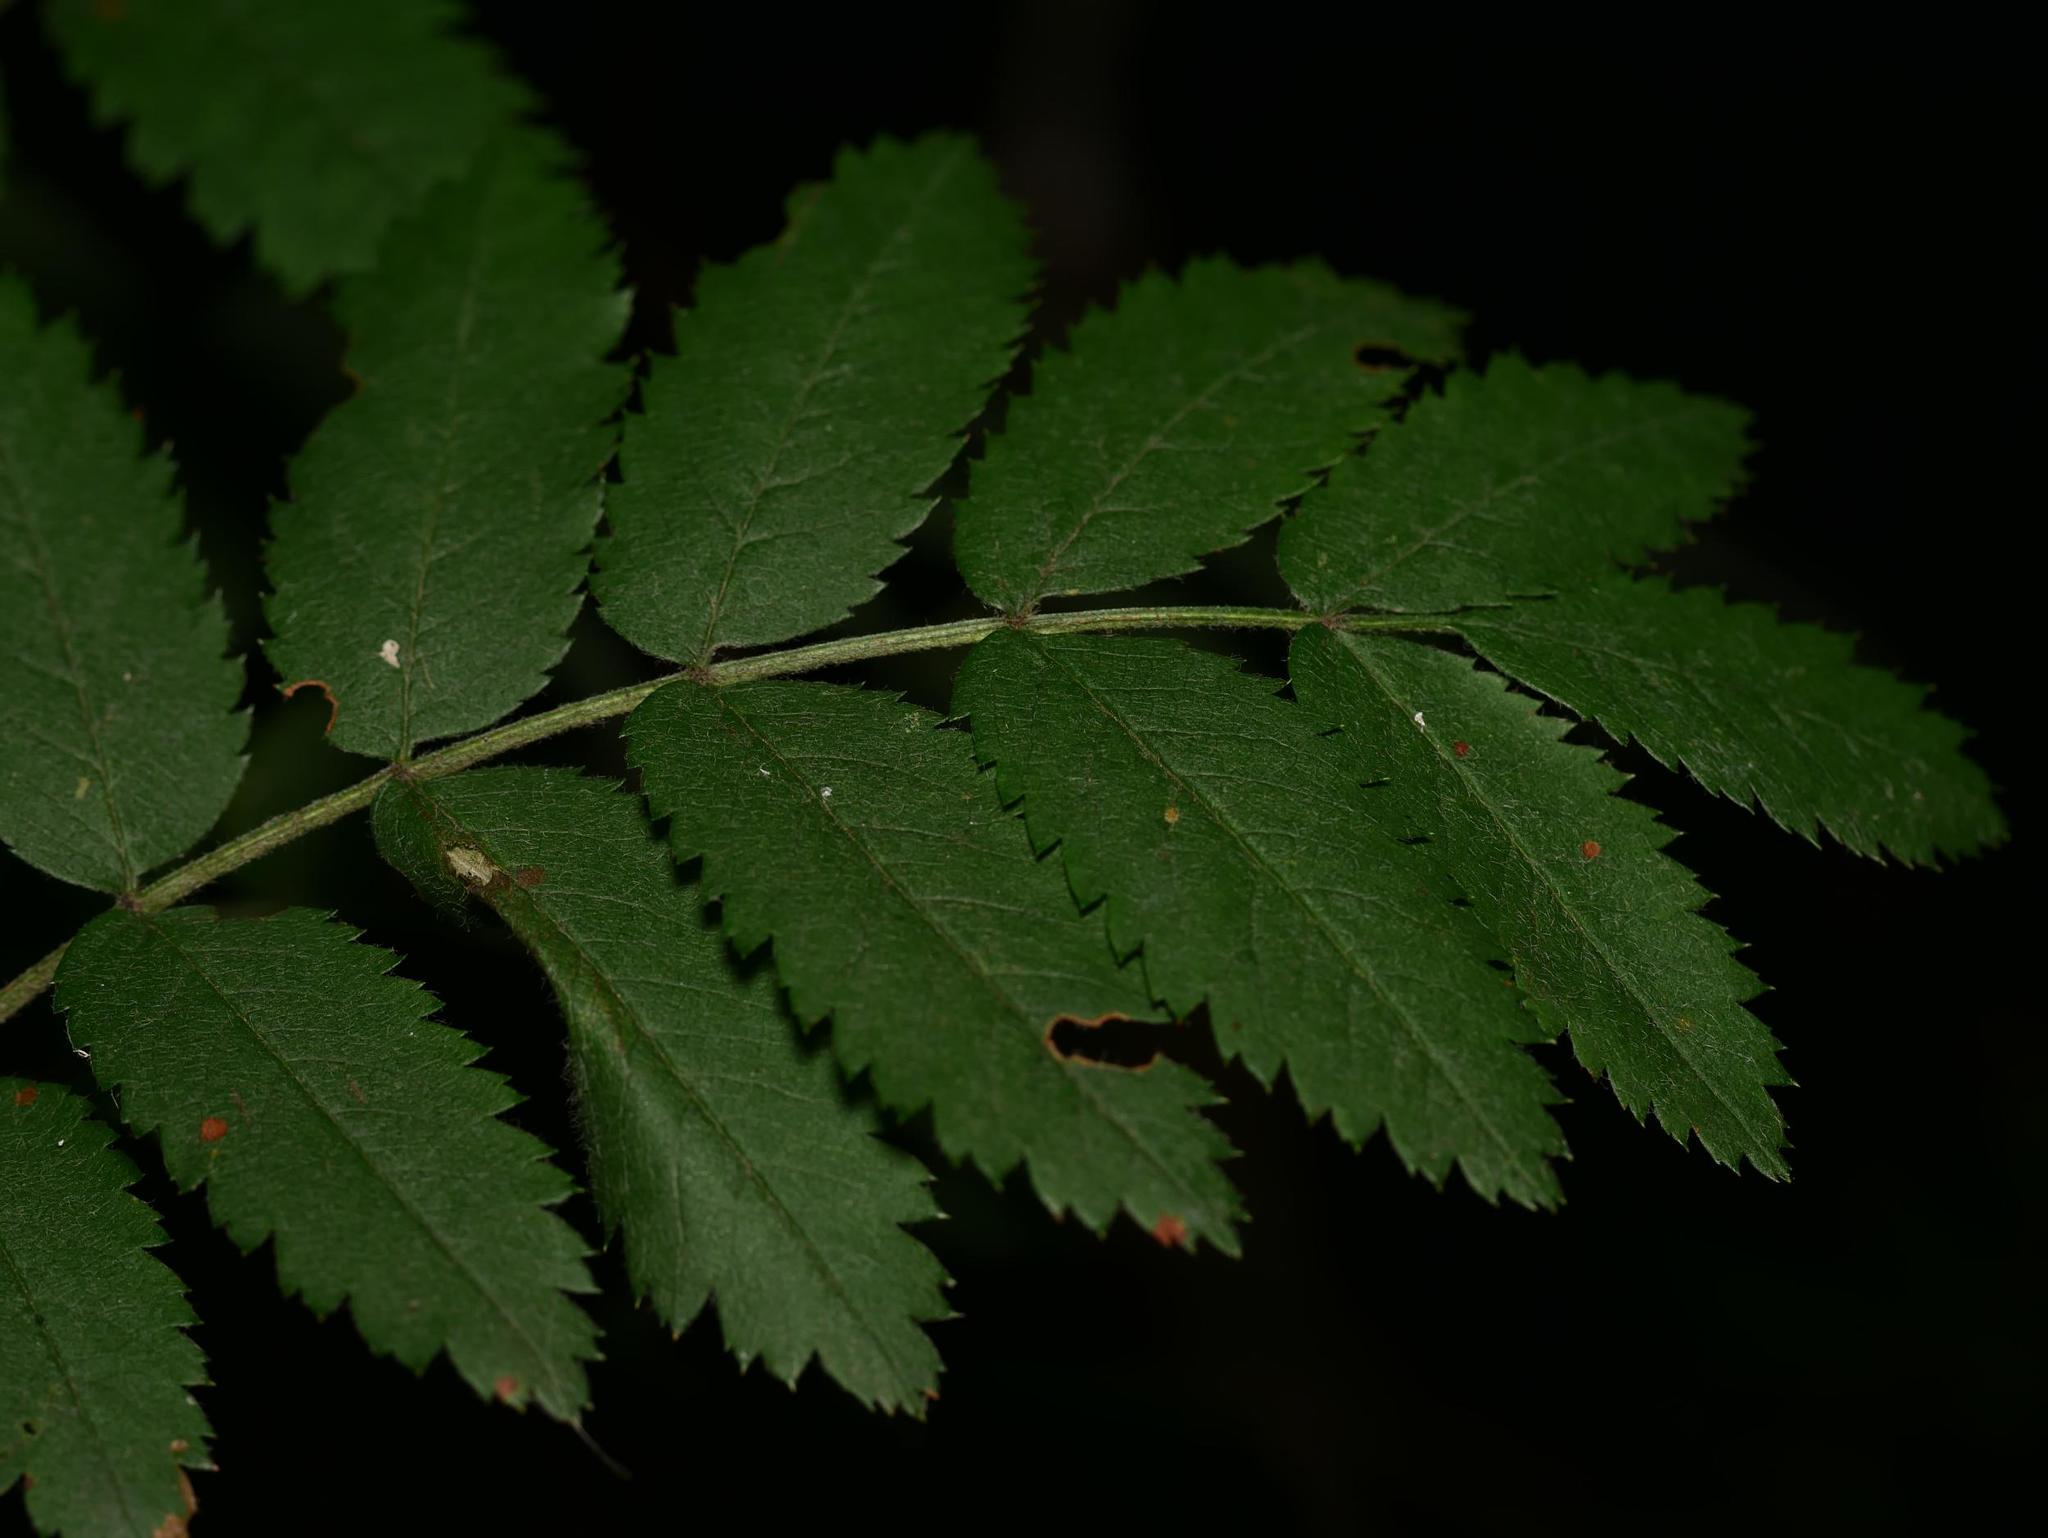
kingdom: Plantae
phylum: Tracheophyta
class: Magnoliopsida
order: Rosales
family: Rosaceae
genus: Sorbus
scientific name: Sorbus aucuparia
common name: Rowan
